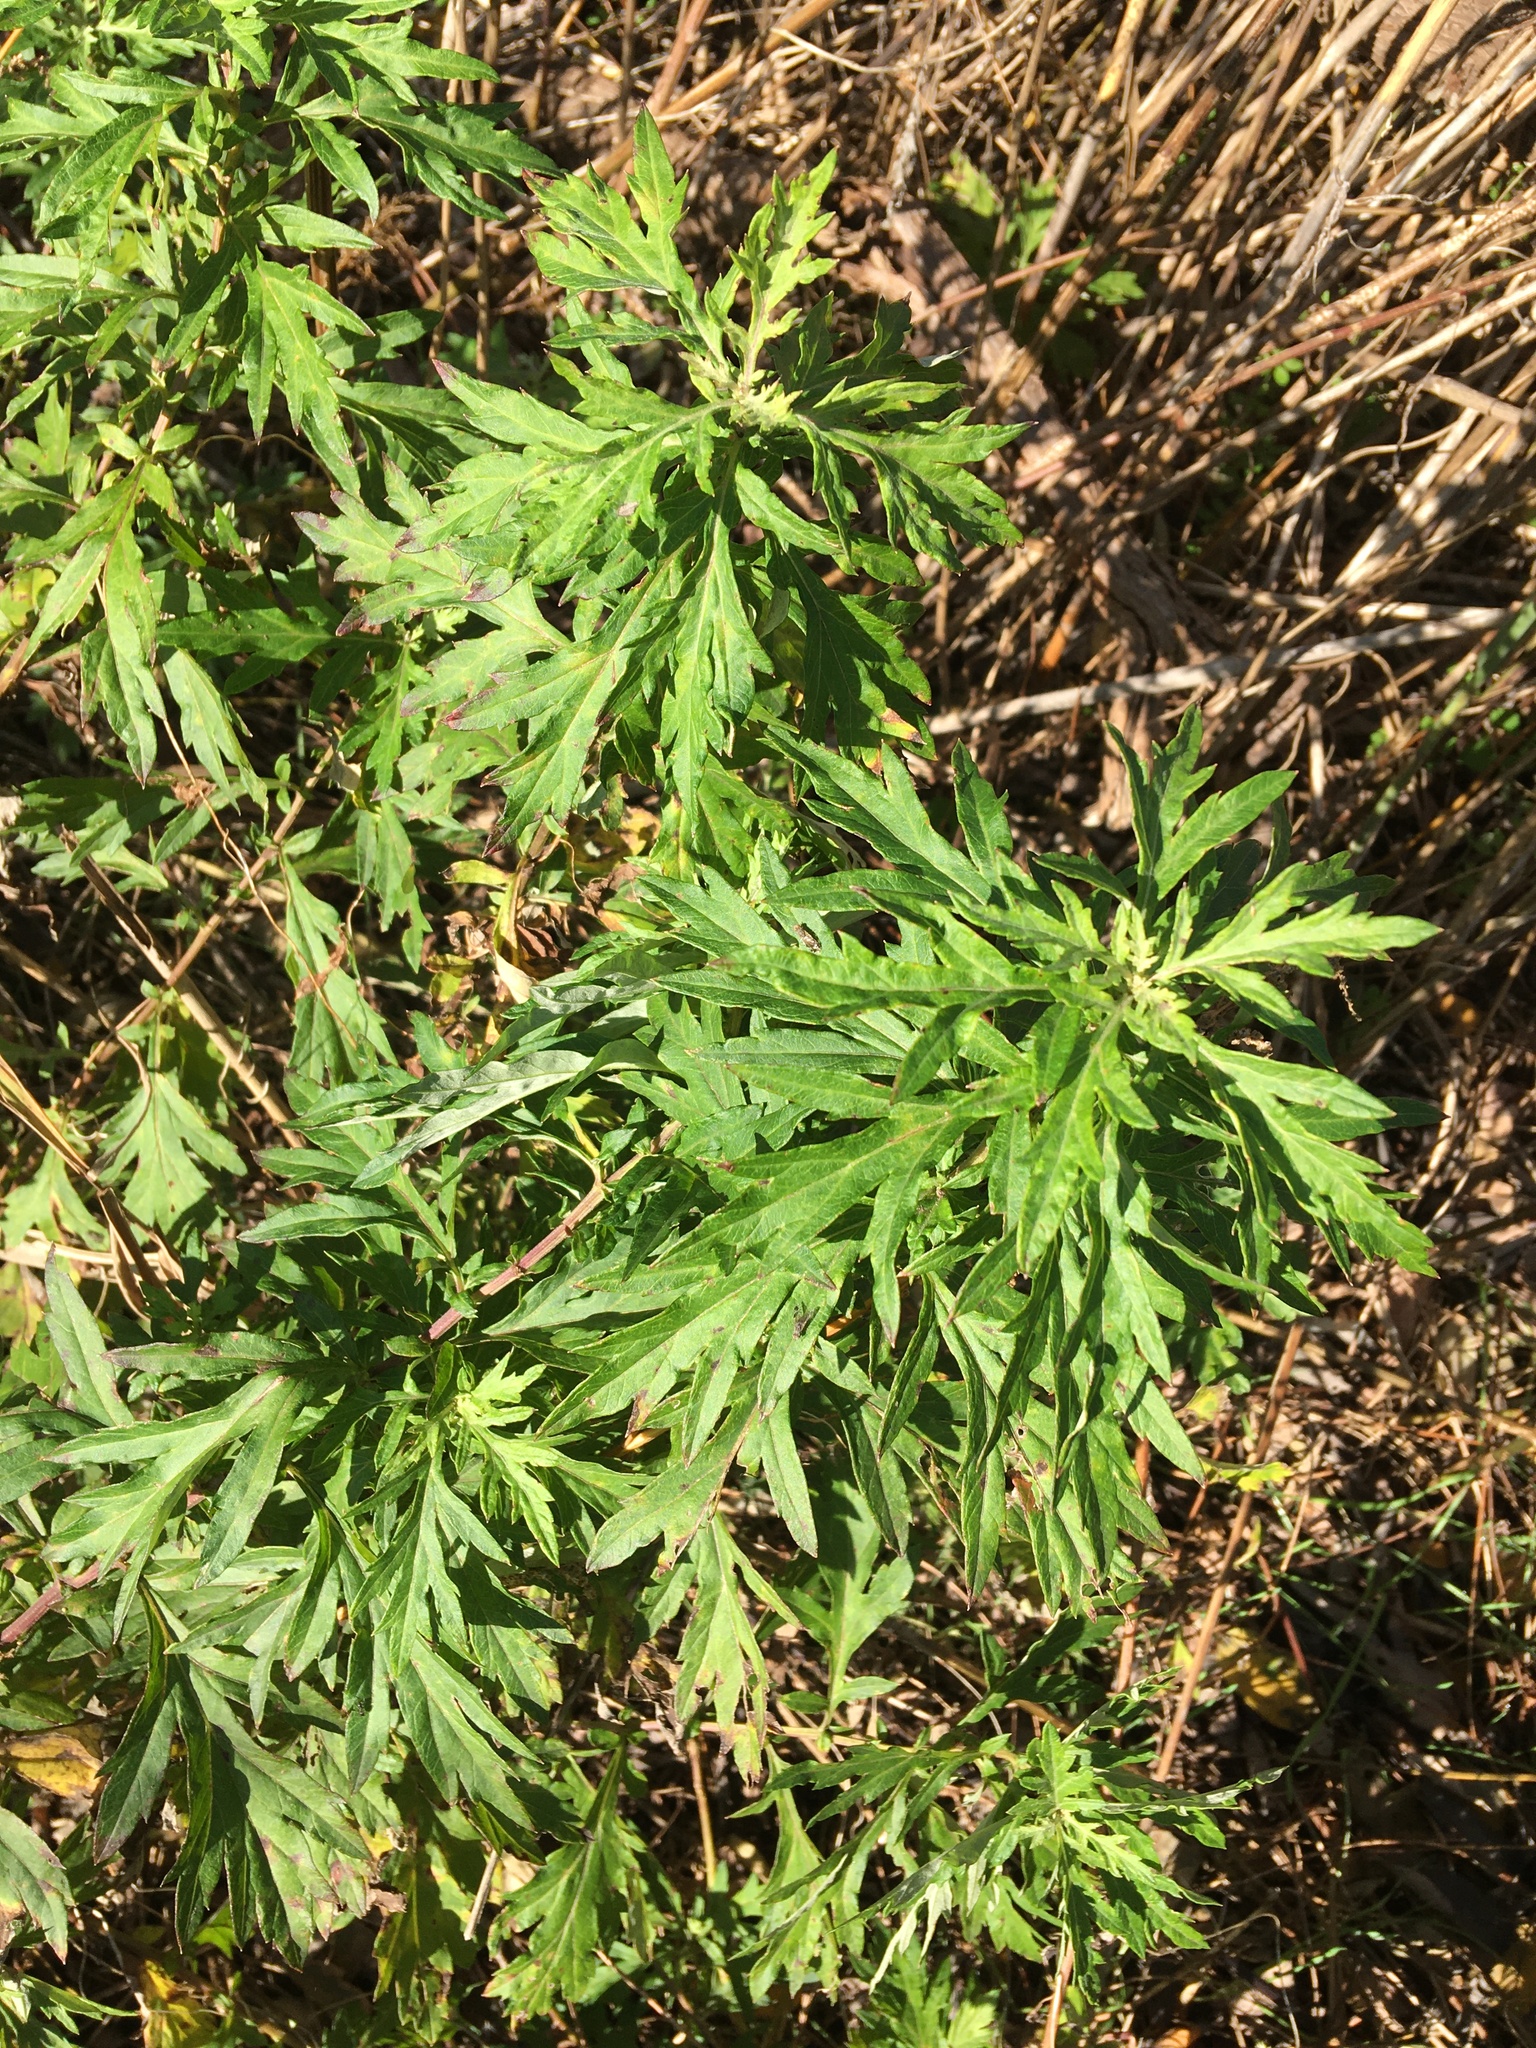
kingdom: Plantae
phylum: Tracheophyta
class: Magnoliopsida
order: Asterales
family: Asteraceae
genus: Artemisia
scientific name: Artemisia vulgaris
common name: Mugwort
